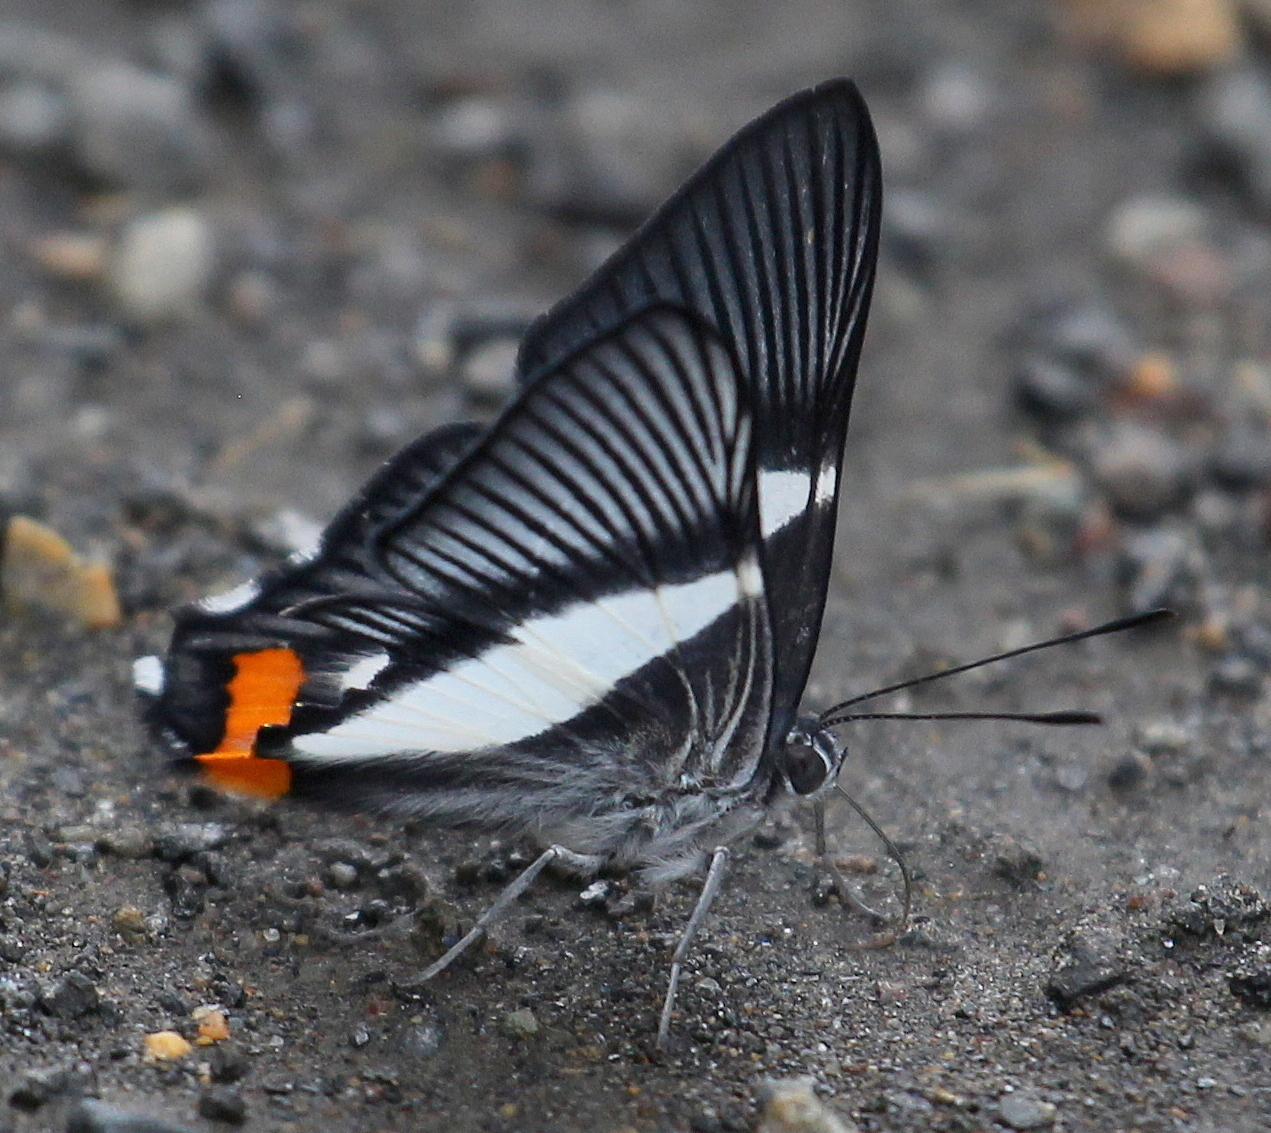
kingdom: Animalia
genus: Siseme
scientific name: Siseme neurodes
